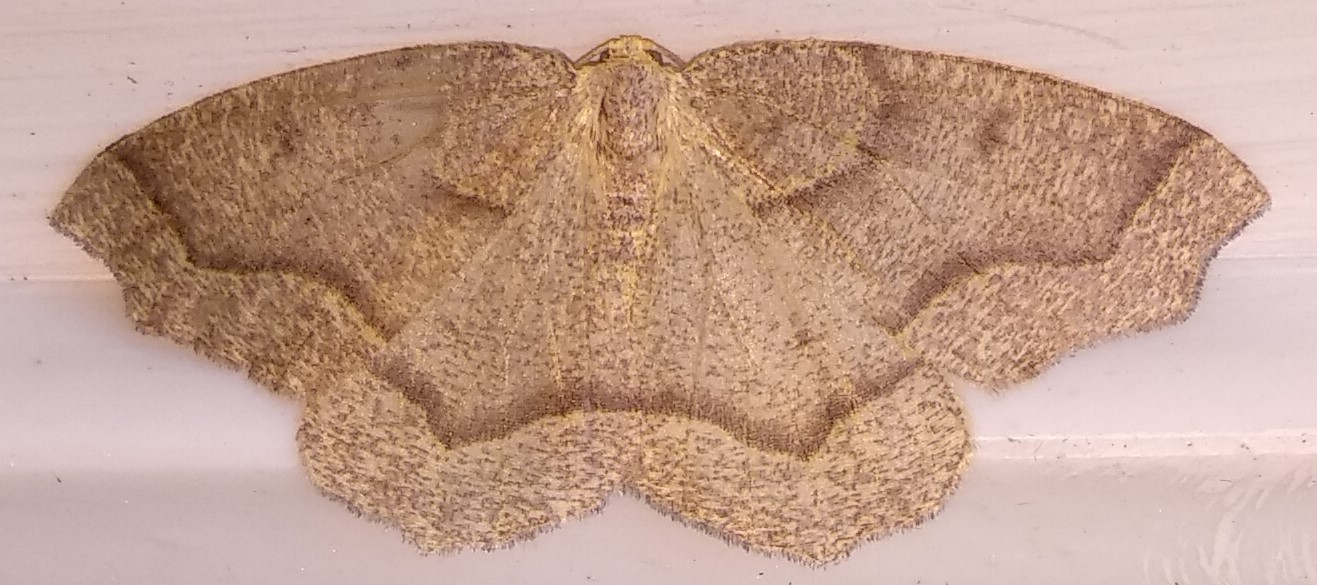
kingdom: Animalia
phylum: Arthropoda
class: Insecta
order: Lepidoptera
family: Geometridae
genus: Lambdina
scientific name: Lambdina fiscellaria
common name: Hemlock looper
